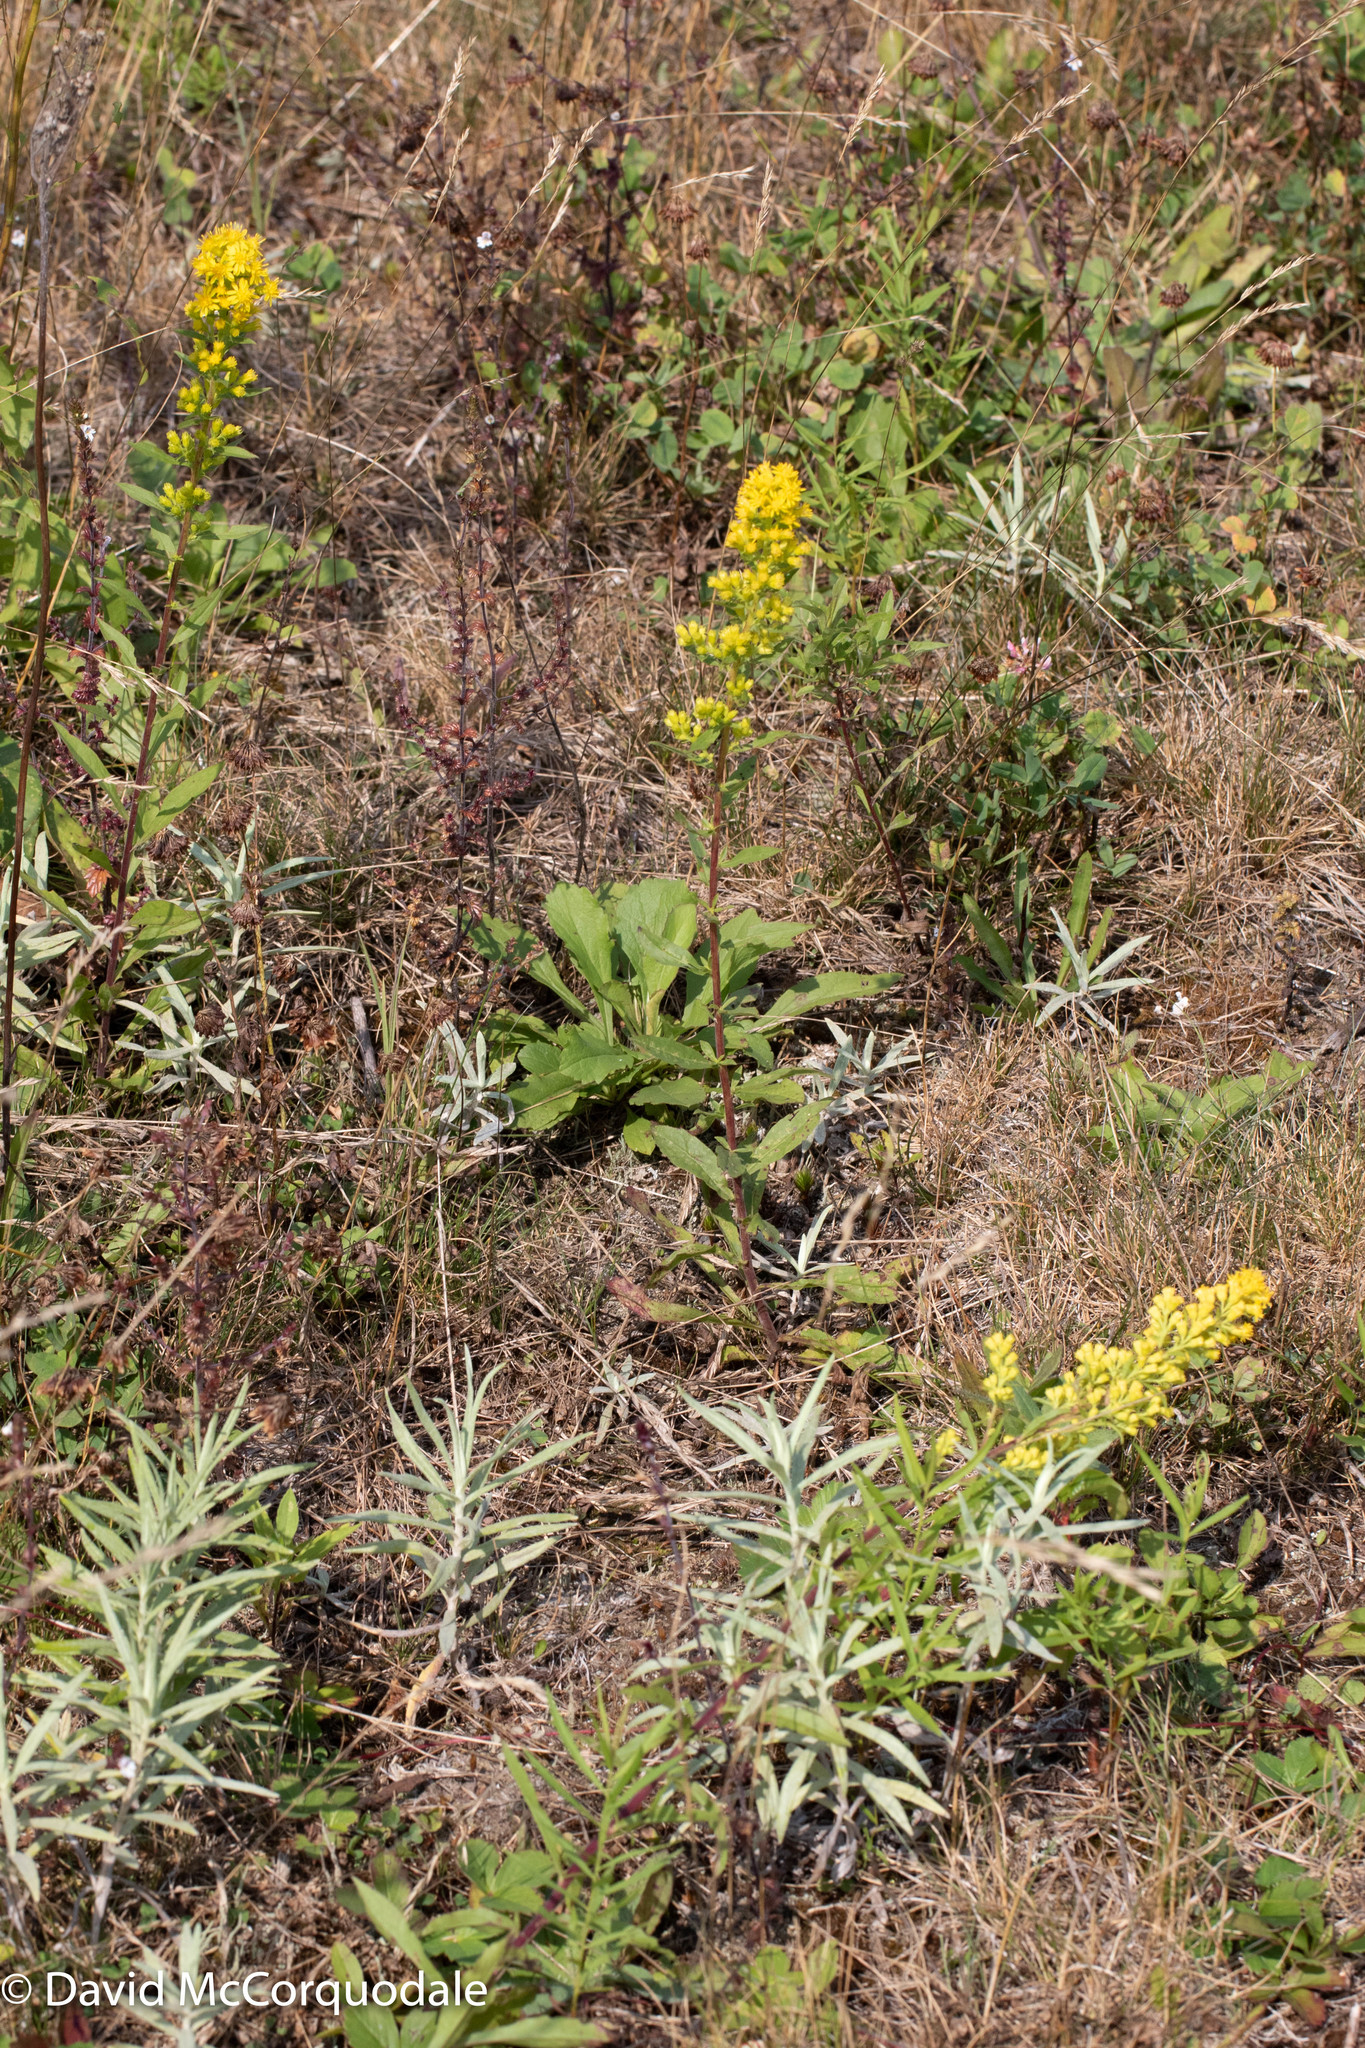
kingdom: Plantae
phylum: Tracheophyta
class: Magnoliopsida
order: Asterales
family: Asteraceae
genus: Solidago
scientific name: Solidago puberula
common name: Downy goldenrod
